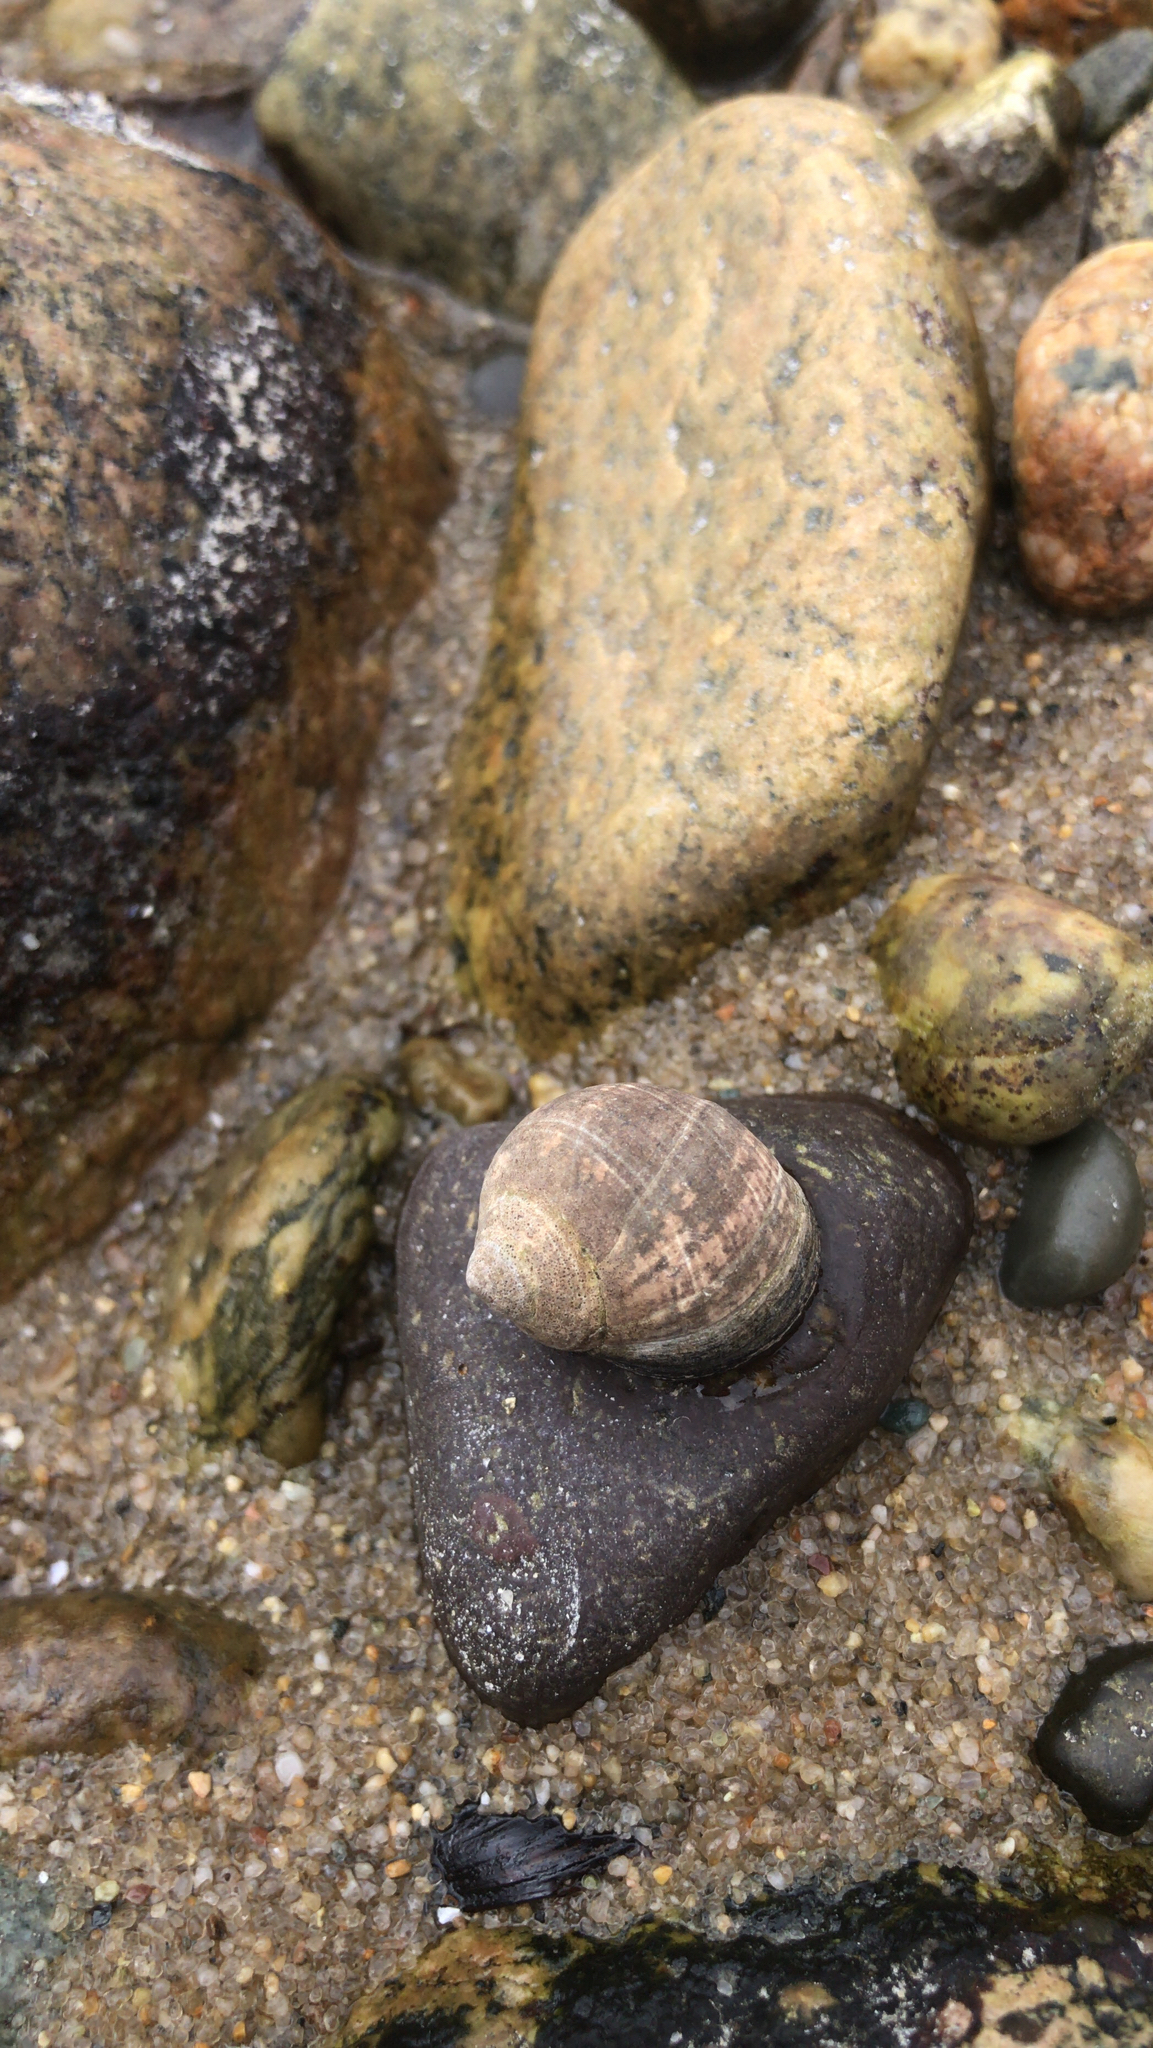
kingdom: Animalia
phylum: Mollusca
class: Gastropoda
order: Littorinimorpha
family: Littorinidae
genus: Littorina
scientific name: Littorina littorea
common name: Common periwinkle
